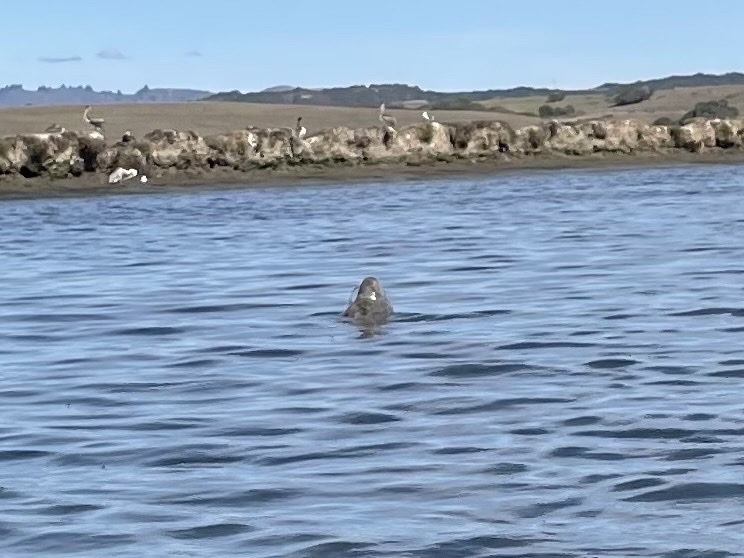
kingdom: Animalia
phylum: Chordata
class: Mammalia
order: Carnivora
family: Phocidae
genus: Phoca
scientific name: Phoca vitulina
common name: Harbor seal
